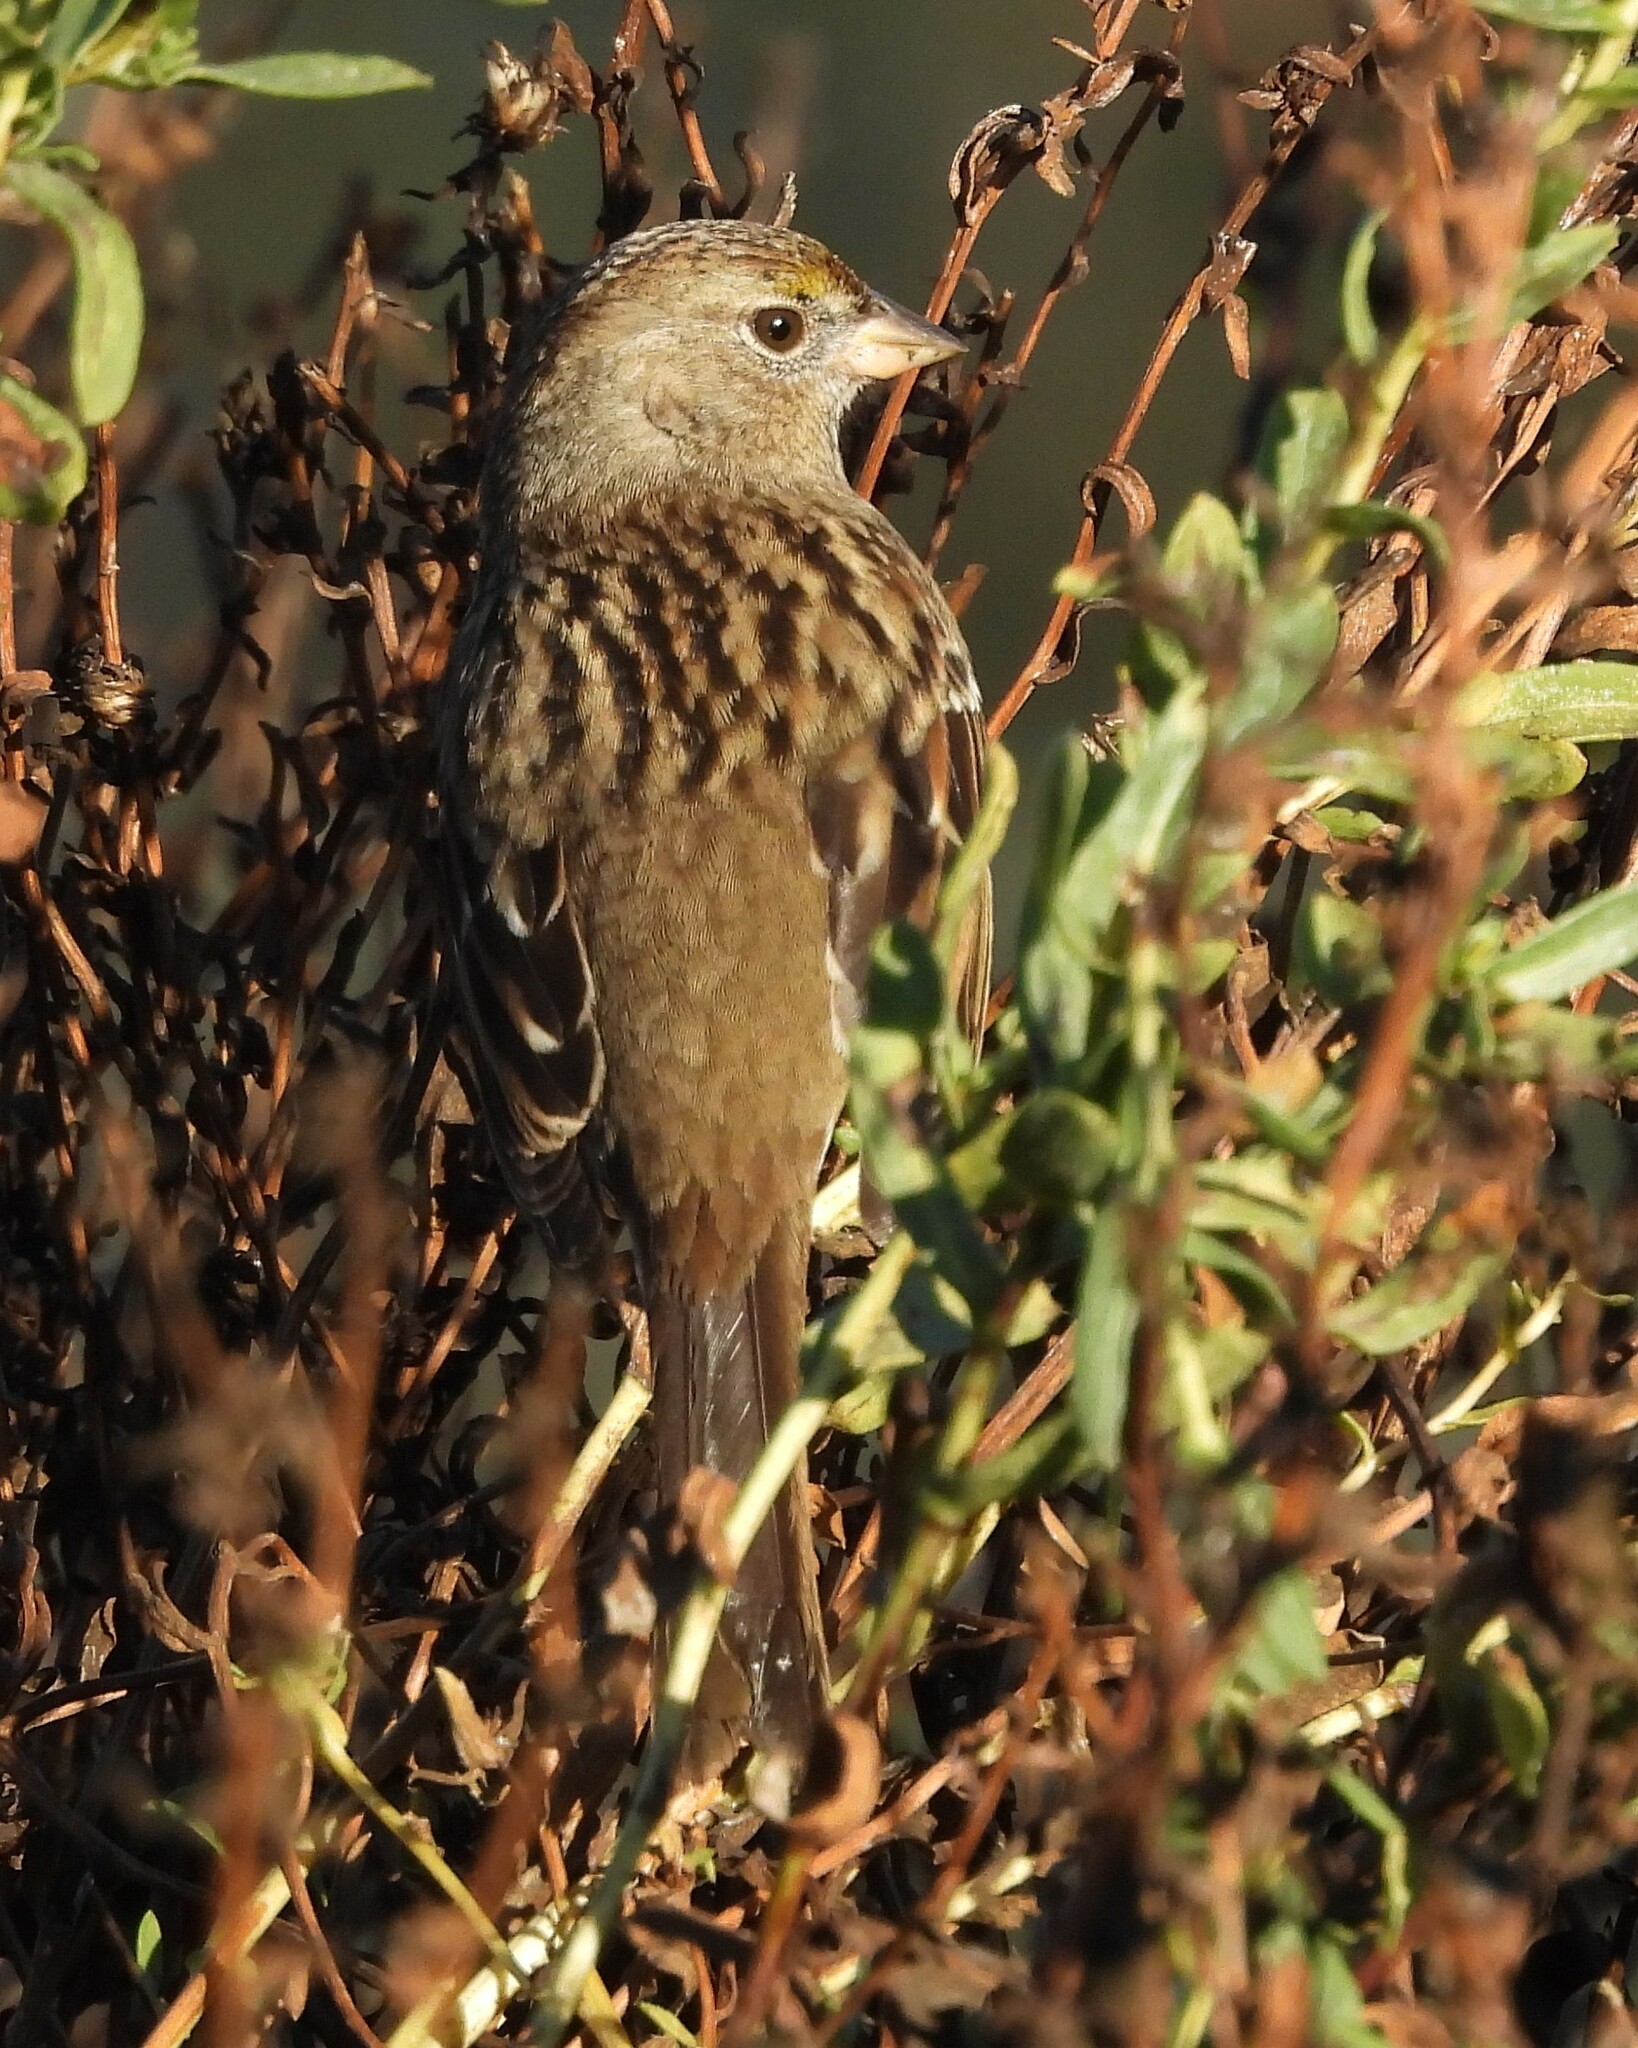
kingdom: Animalia
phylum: Chordata
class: Aves
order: Passeriformes
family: Passerellidae
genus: Zonotrichia
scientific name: Zonotrichia atricapilla
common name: Golden-crowned sparrow
